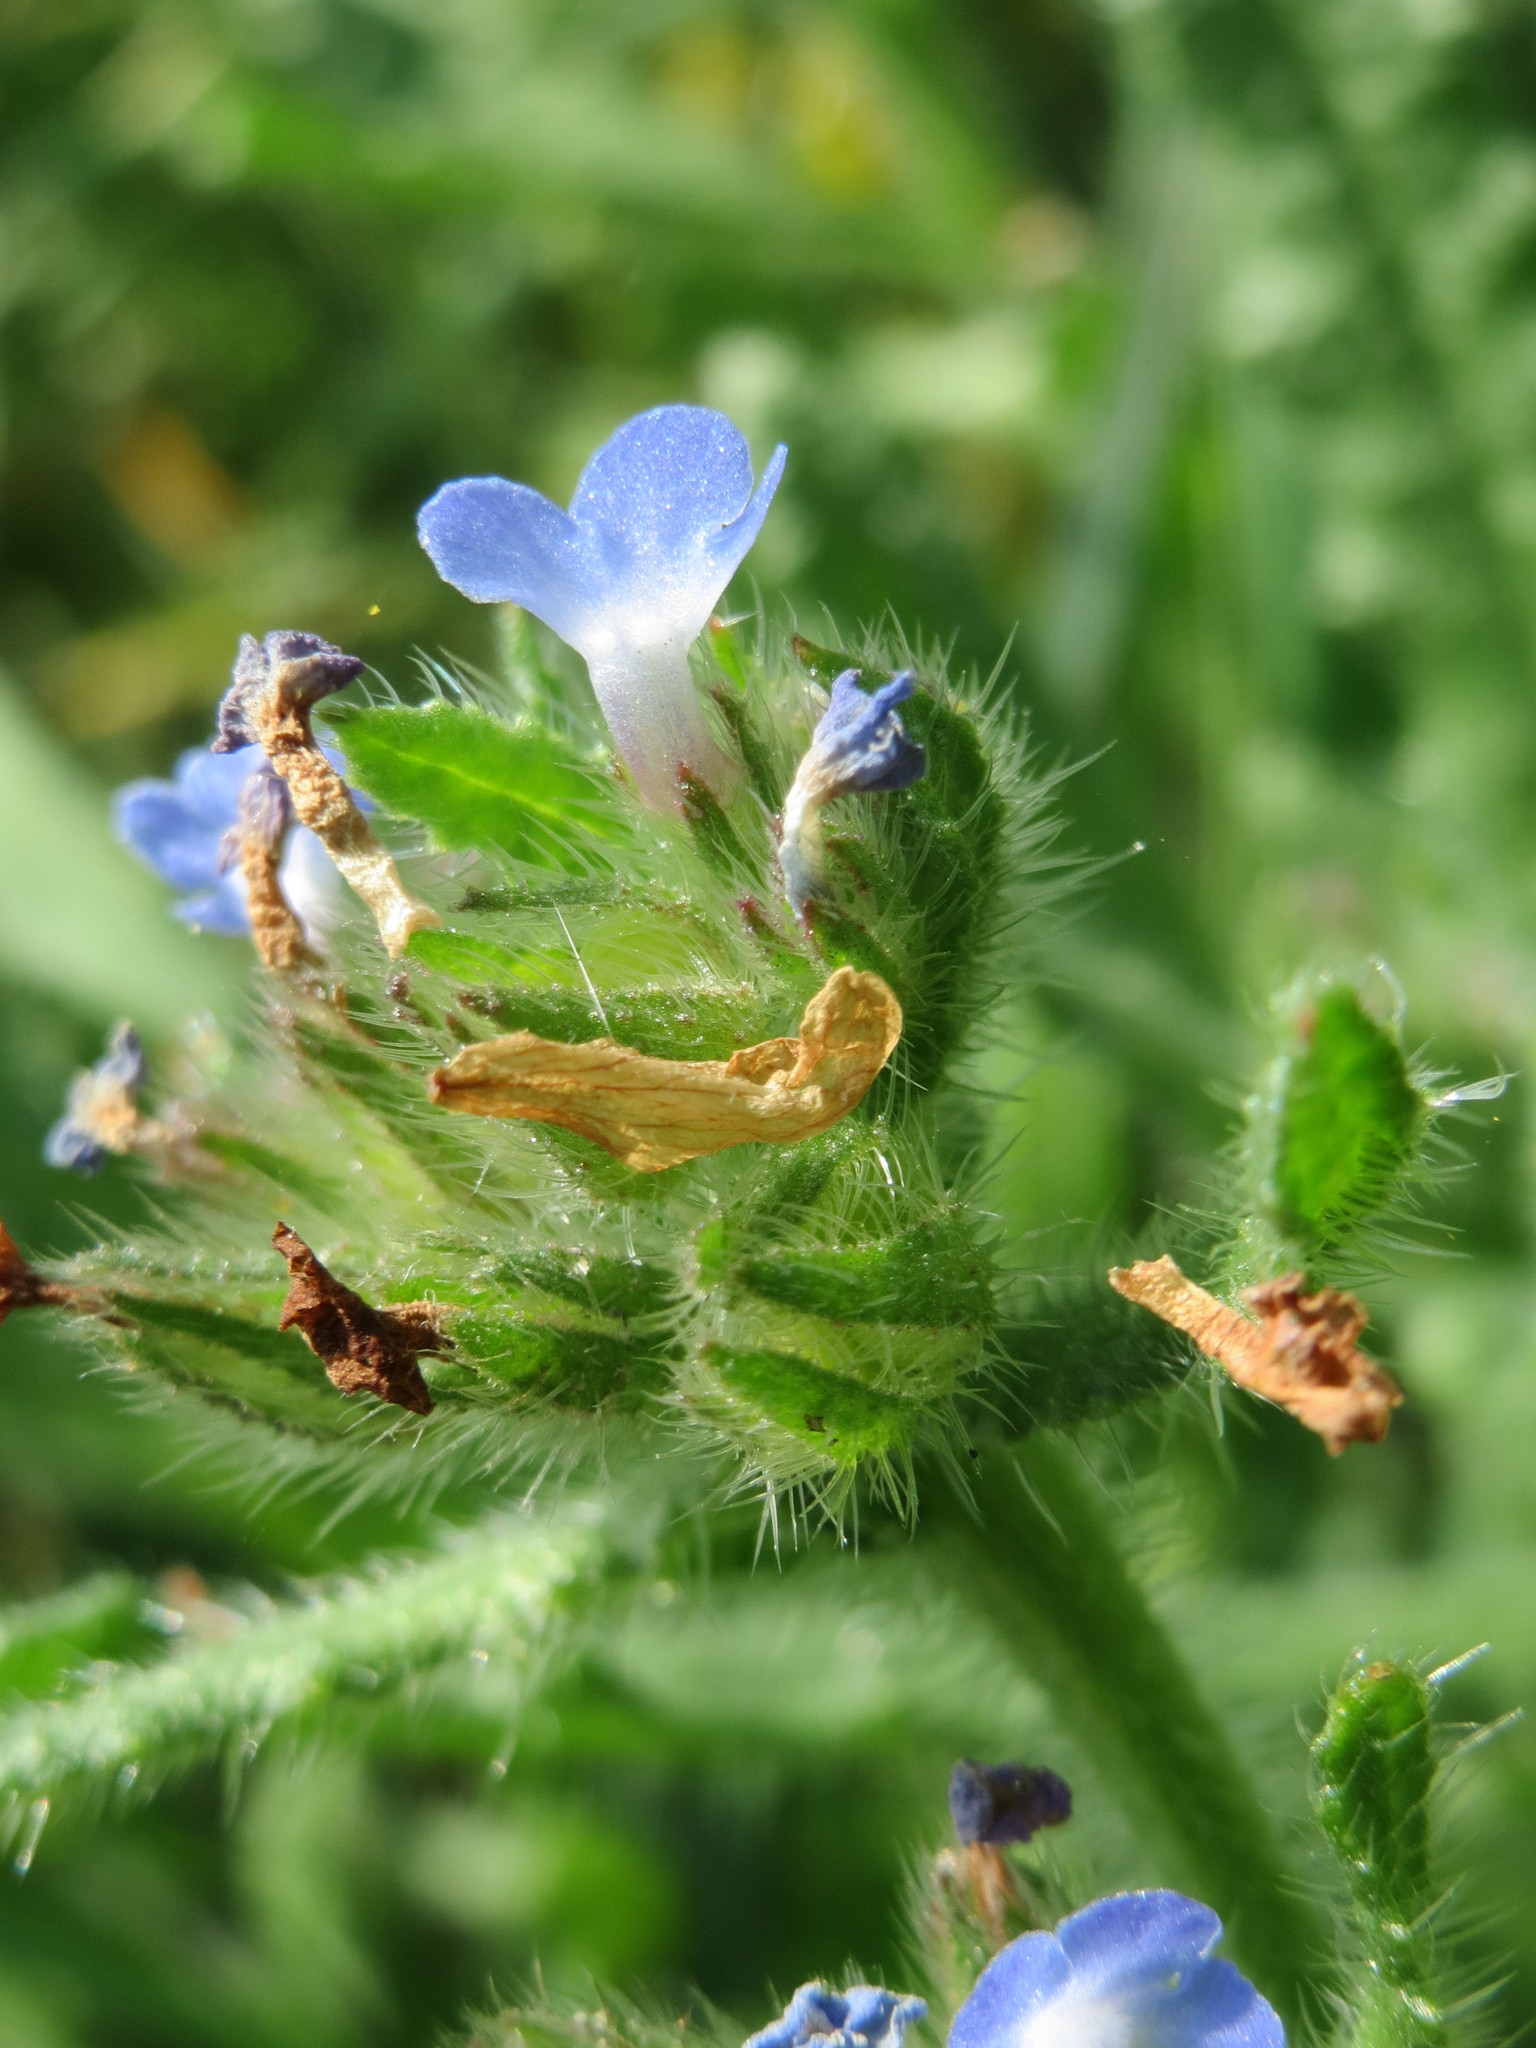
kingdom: Plantae
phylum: Tracheophyta
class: Magnoliopsida
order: Boraginales
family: Boraginaceae
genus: Lycopsis
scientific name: Lycopsis arvensis
